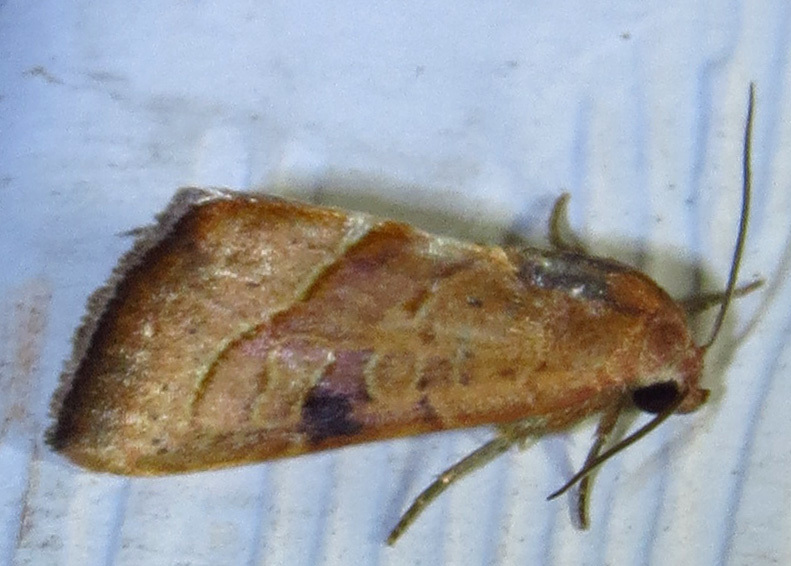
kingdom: Animalia
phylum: Arthropoda
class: Insecta
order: Lepidoptera
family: Noctuidae
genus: Galgula
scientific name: Galgula partita
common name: Wedgeling
